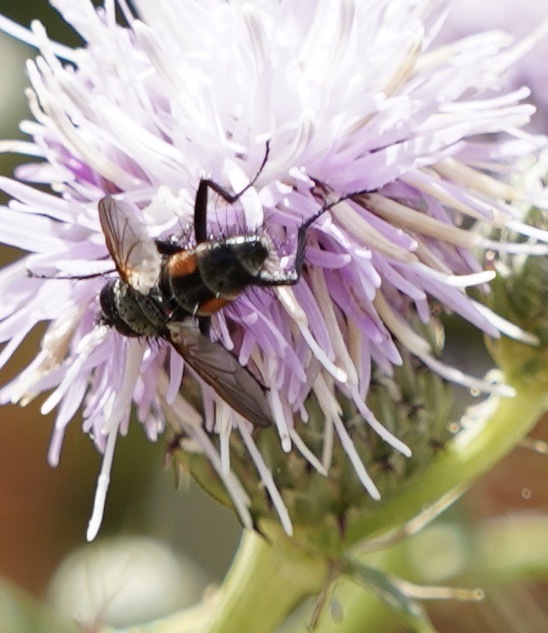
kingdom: Animalia
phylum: Arthropoda
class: Insecta
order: Diptera
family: Tachinidae
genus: Eriothrix
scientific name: Eriothrix rufomaculatus
